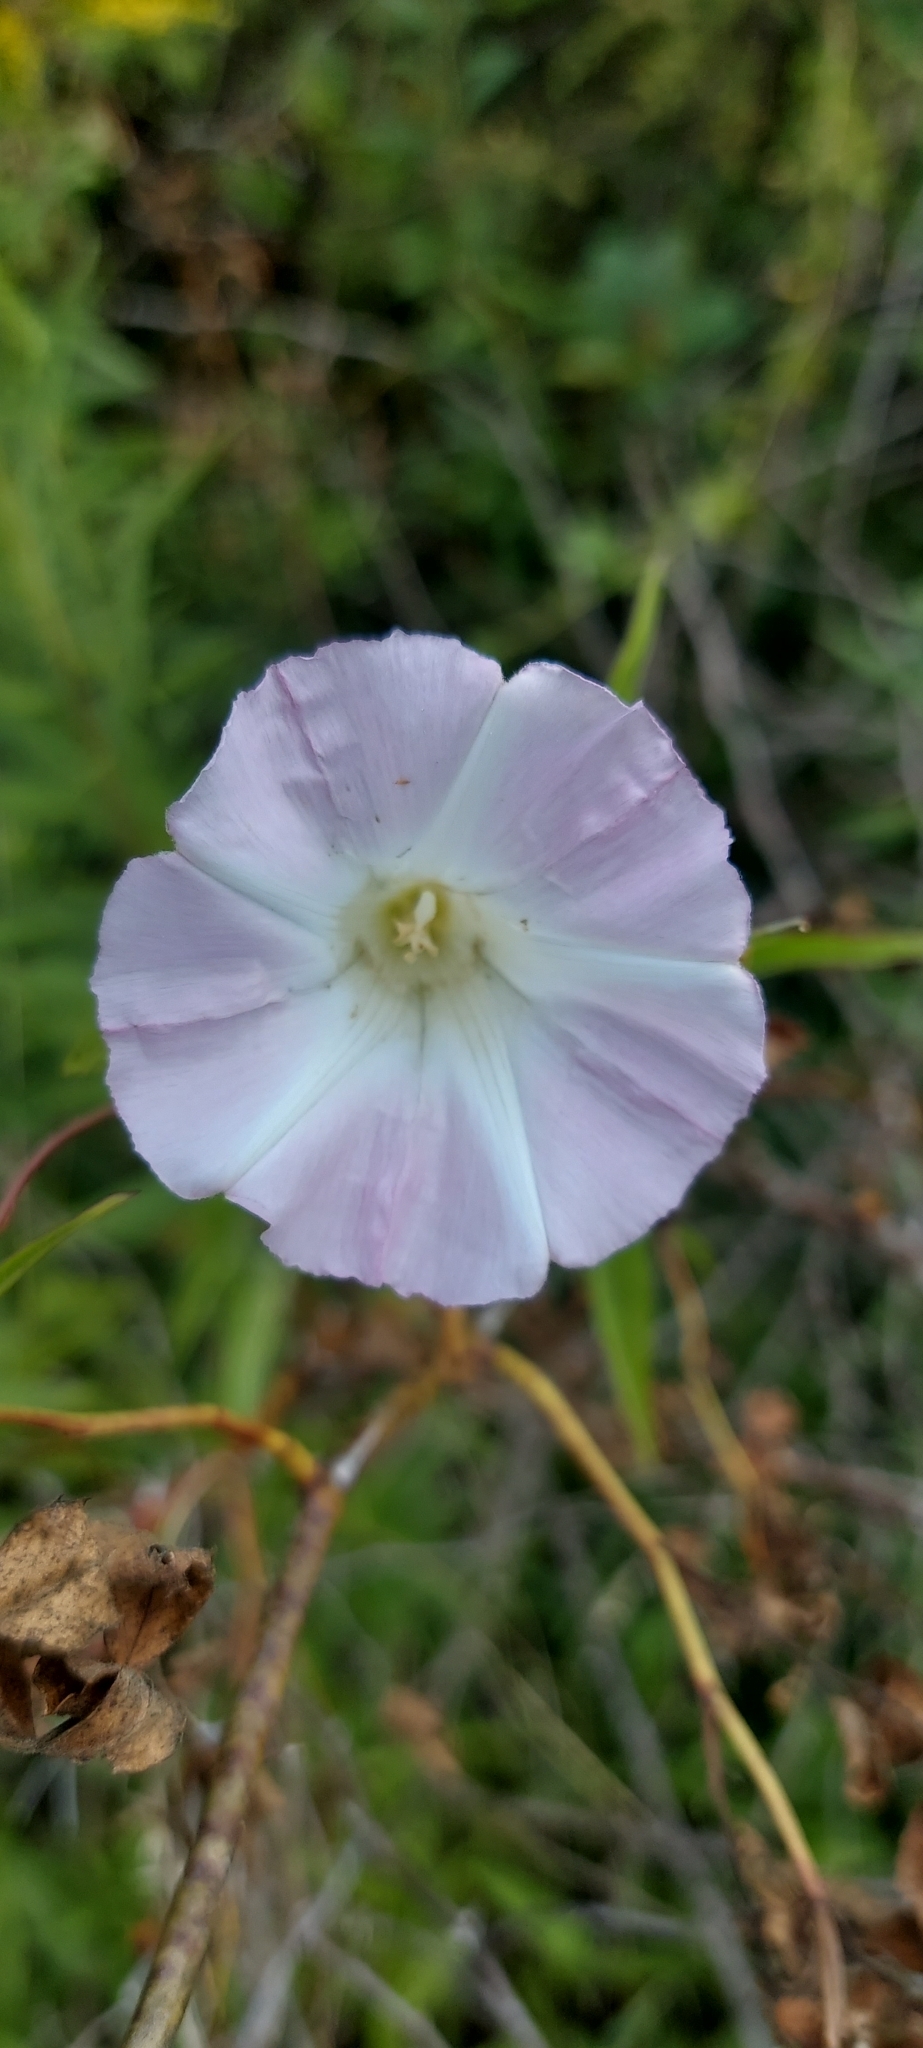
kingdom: Plantae
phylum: Tracheophyta
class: Magnoliopsida
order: Solanales
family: Convolvulaceae
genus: Calystegia
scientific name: Calystegia sepium
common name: Hedge bindweed
